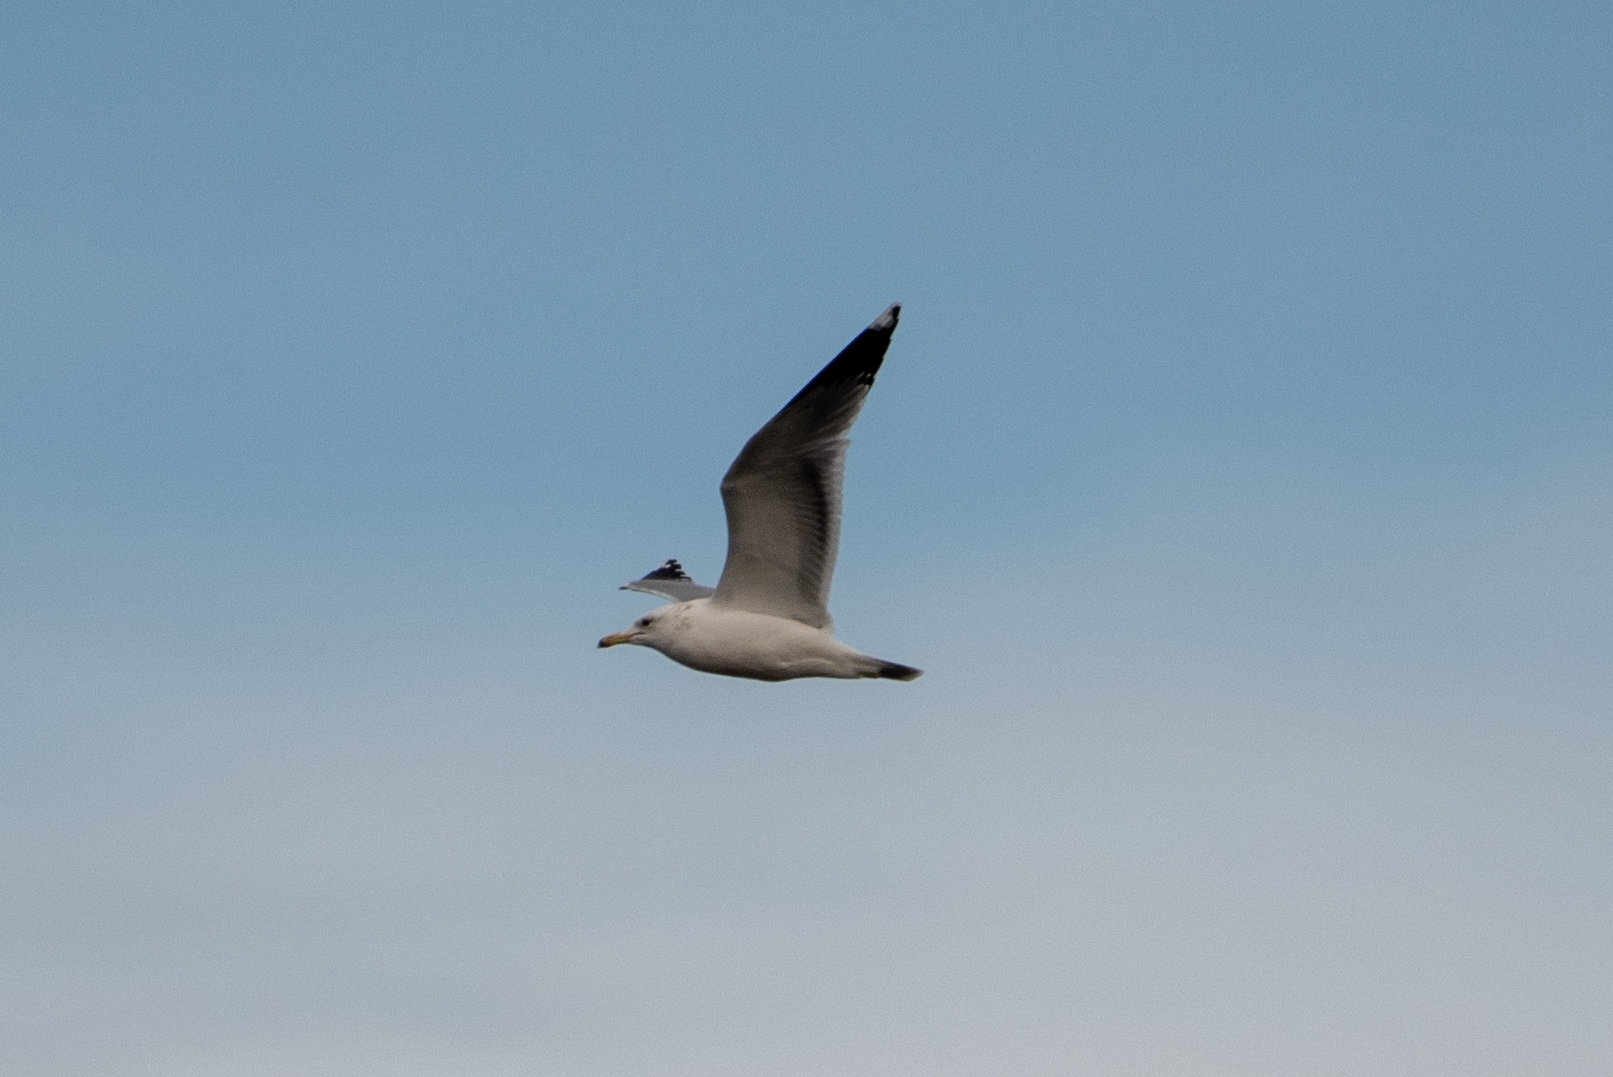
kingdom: Animalia
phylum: Chordata
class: Aves
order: Charadriiformes
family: Laridae
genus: Larus
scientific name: Larus californicus
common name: California gull
